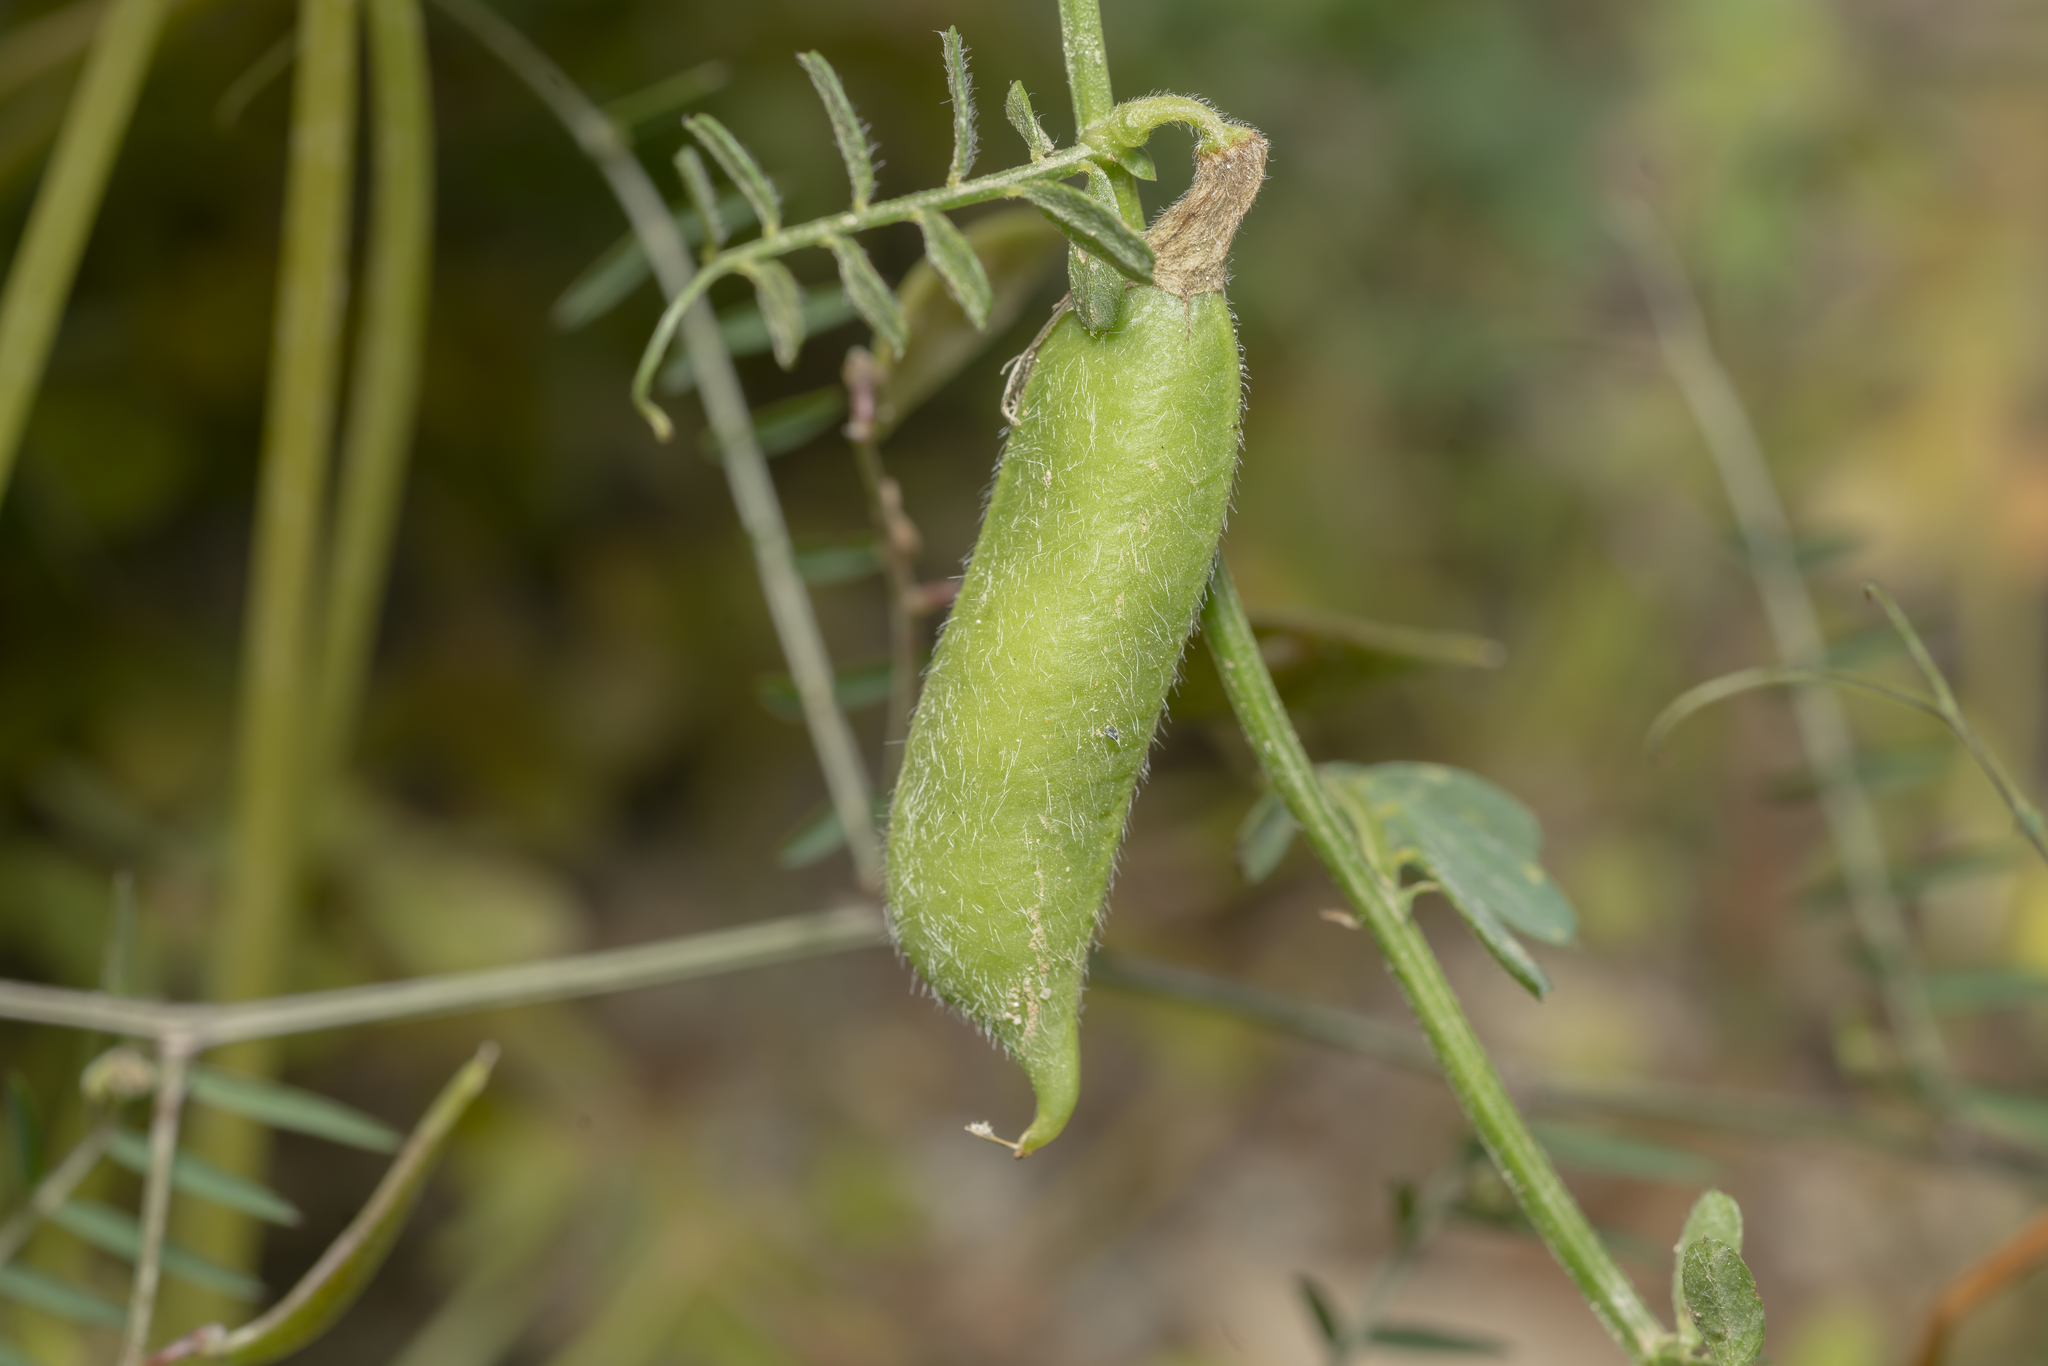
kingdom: Plantae
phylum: Tracheophyta
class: Magnoliopsida
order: Fabales
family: Fabaceae
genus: Vicia
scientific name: Vicia hybrida
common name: Hairy yellow vetch
